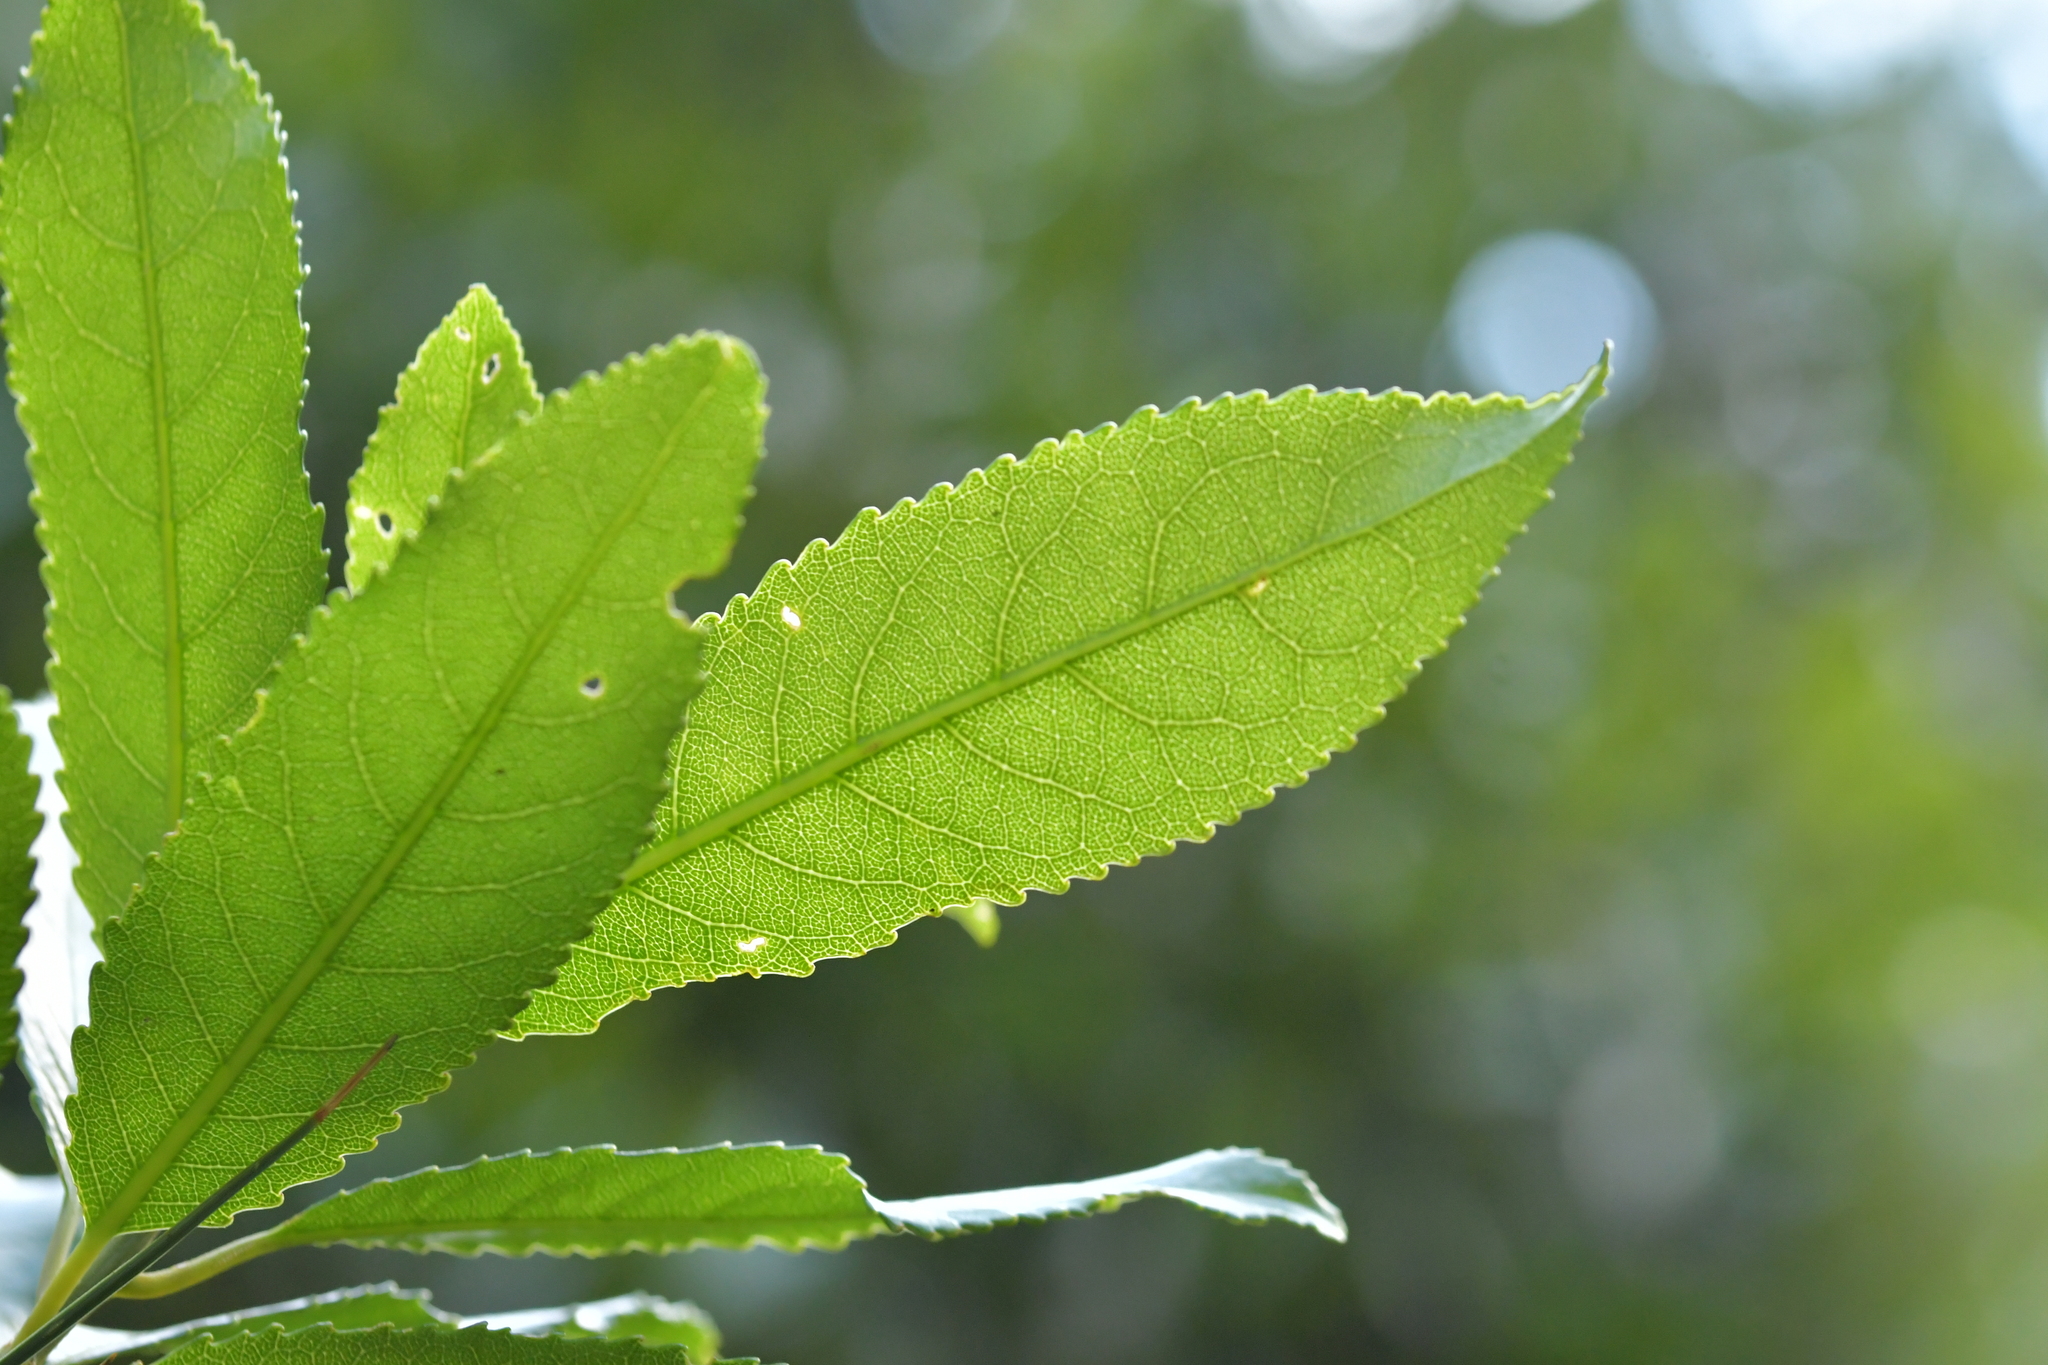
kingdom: Plantae
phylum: Tracheophyta
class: Magnoliopsida
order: Malpighiales
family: Violaceae
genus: Melicytus
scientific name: Melicytus ramiflorus
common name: Mahoe
